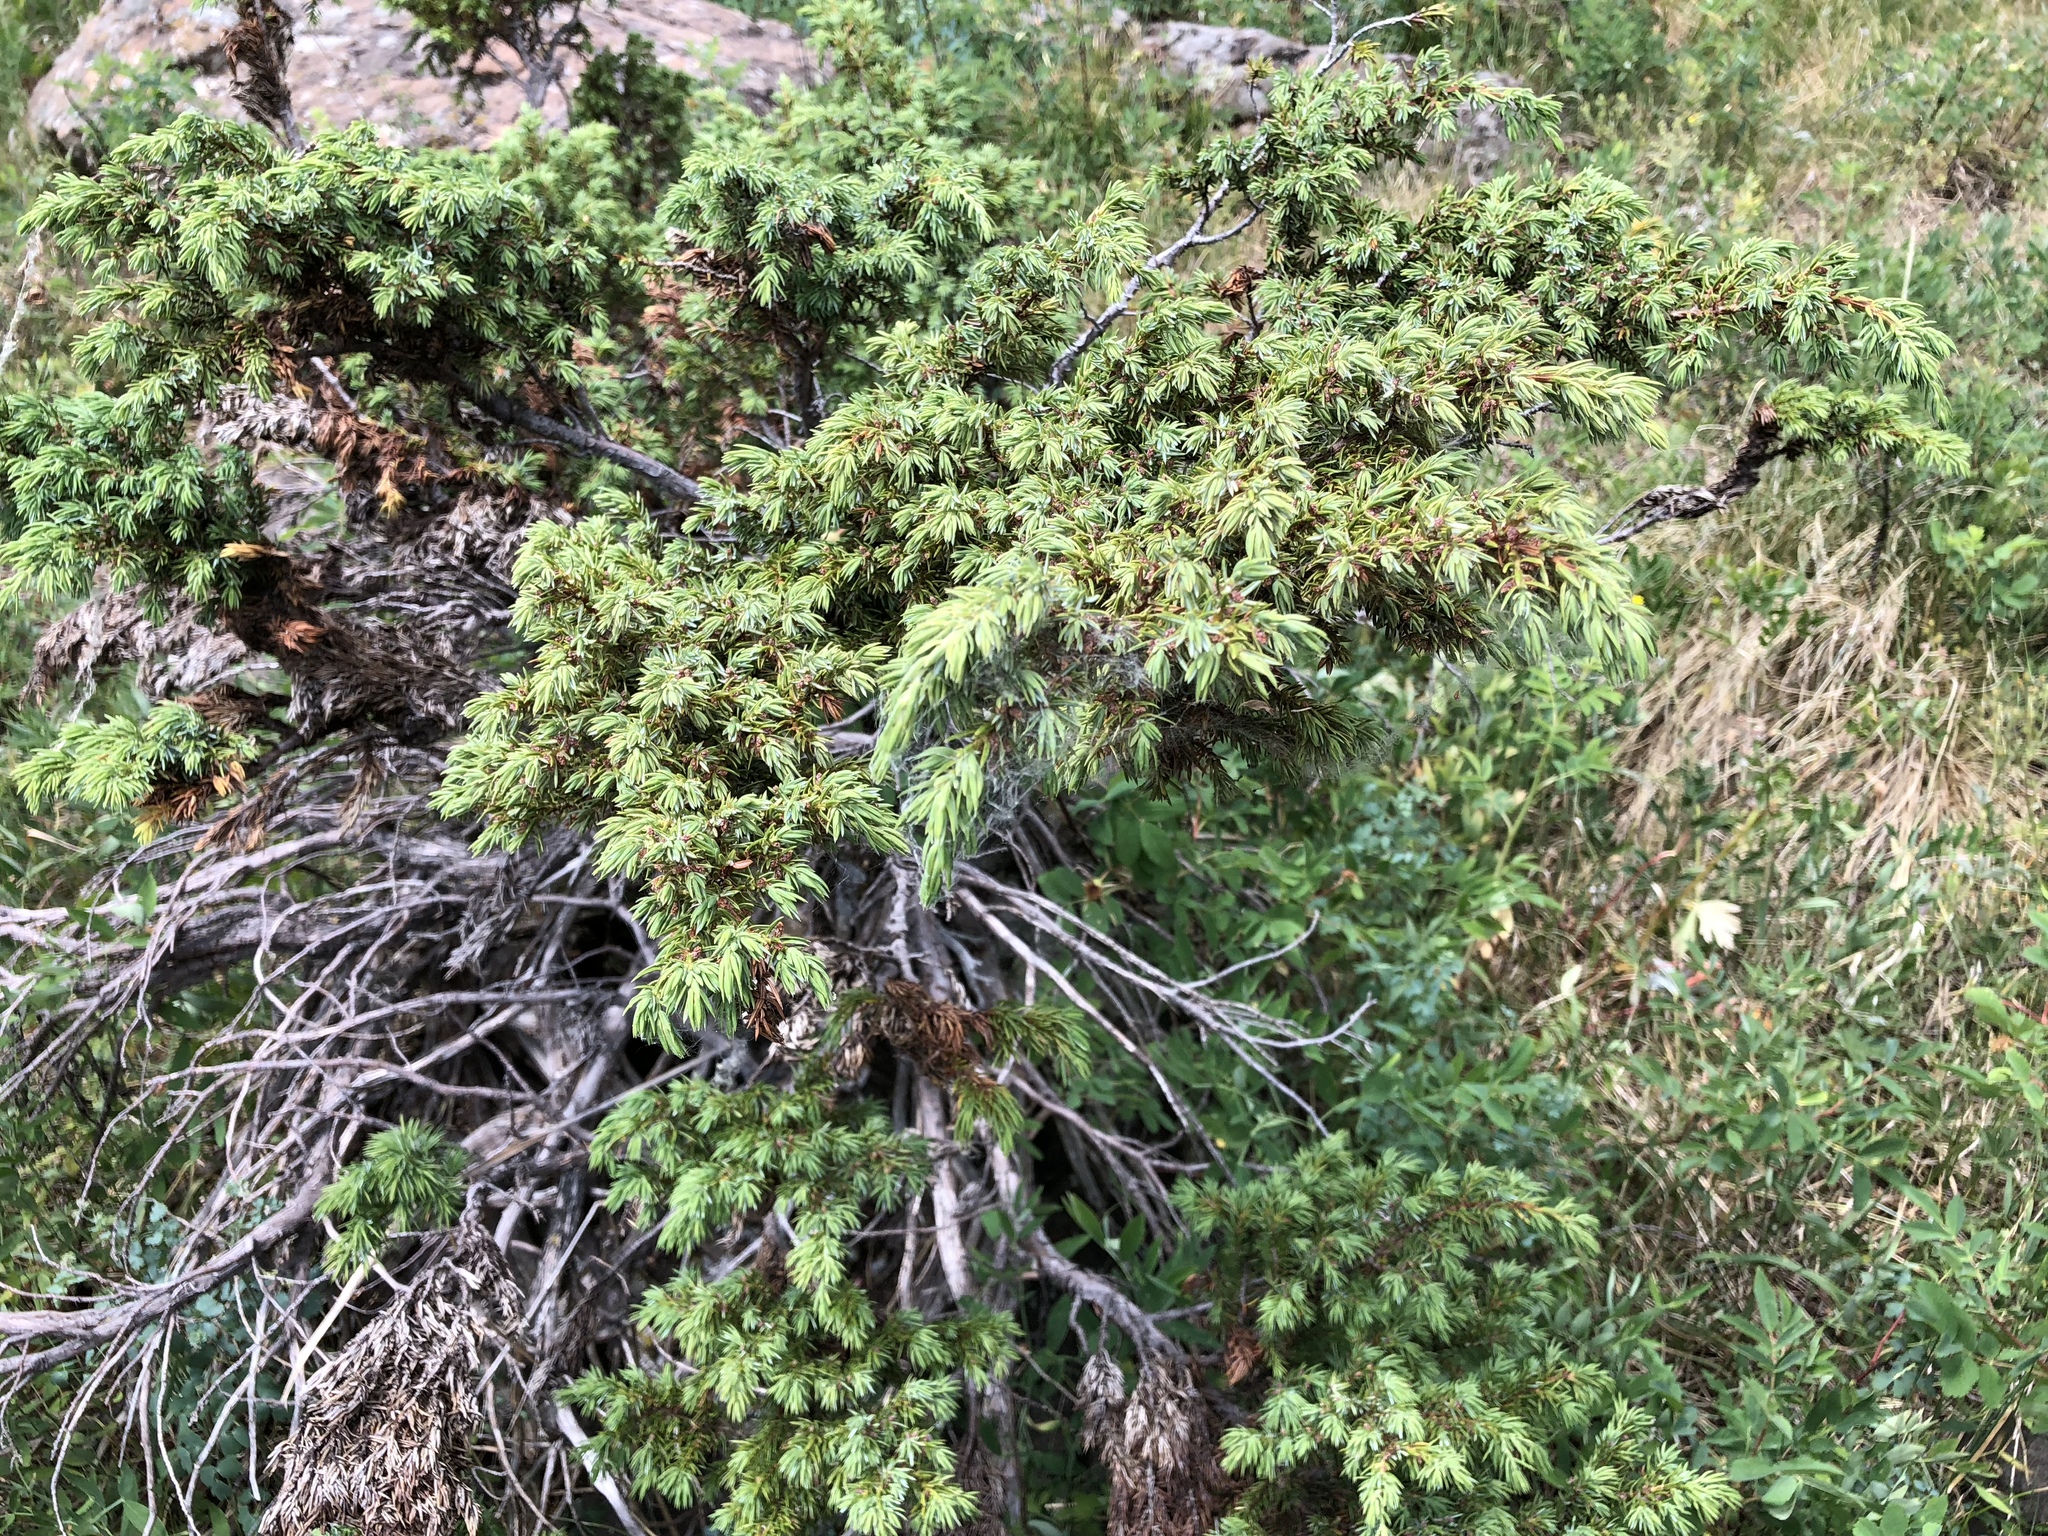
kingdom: Plantae
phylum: Tracheophyta
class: Pinopsida
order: Pinales
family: Cupressaceae
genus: Juniperus
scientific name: Juniperus communis
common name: Common juniper
